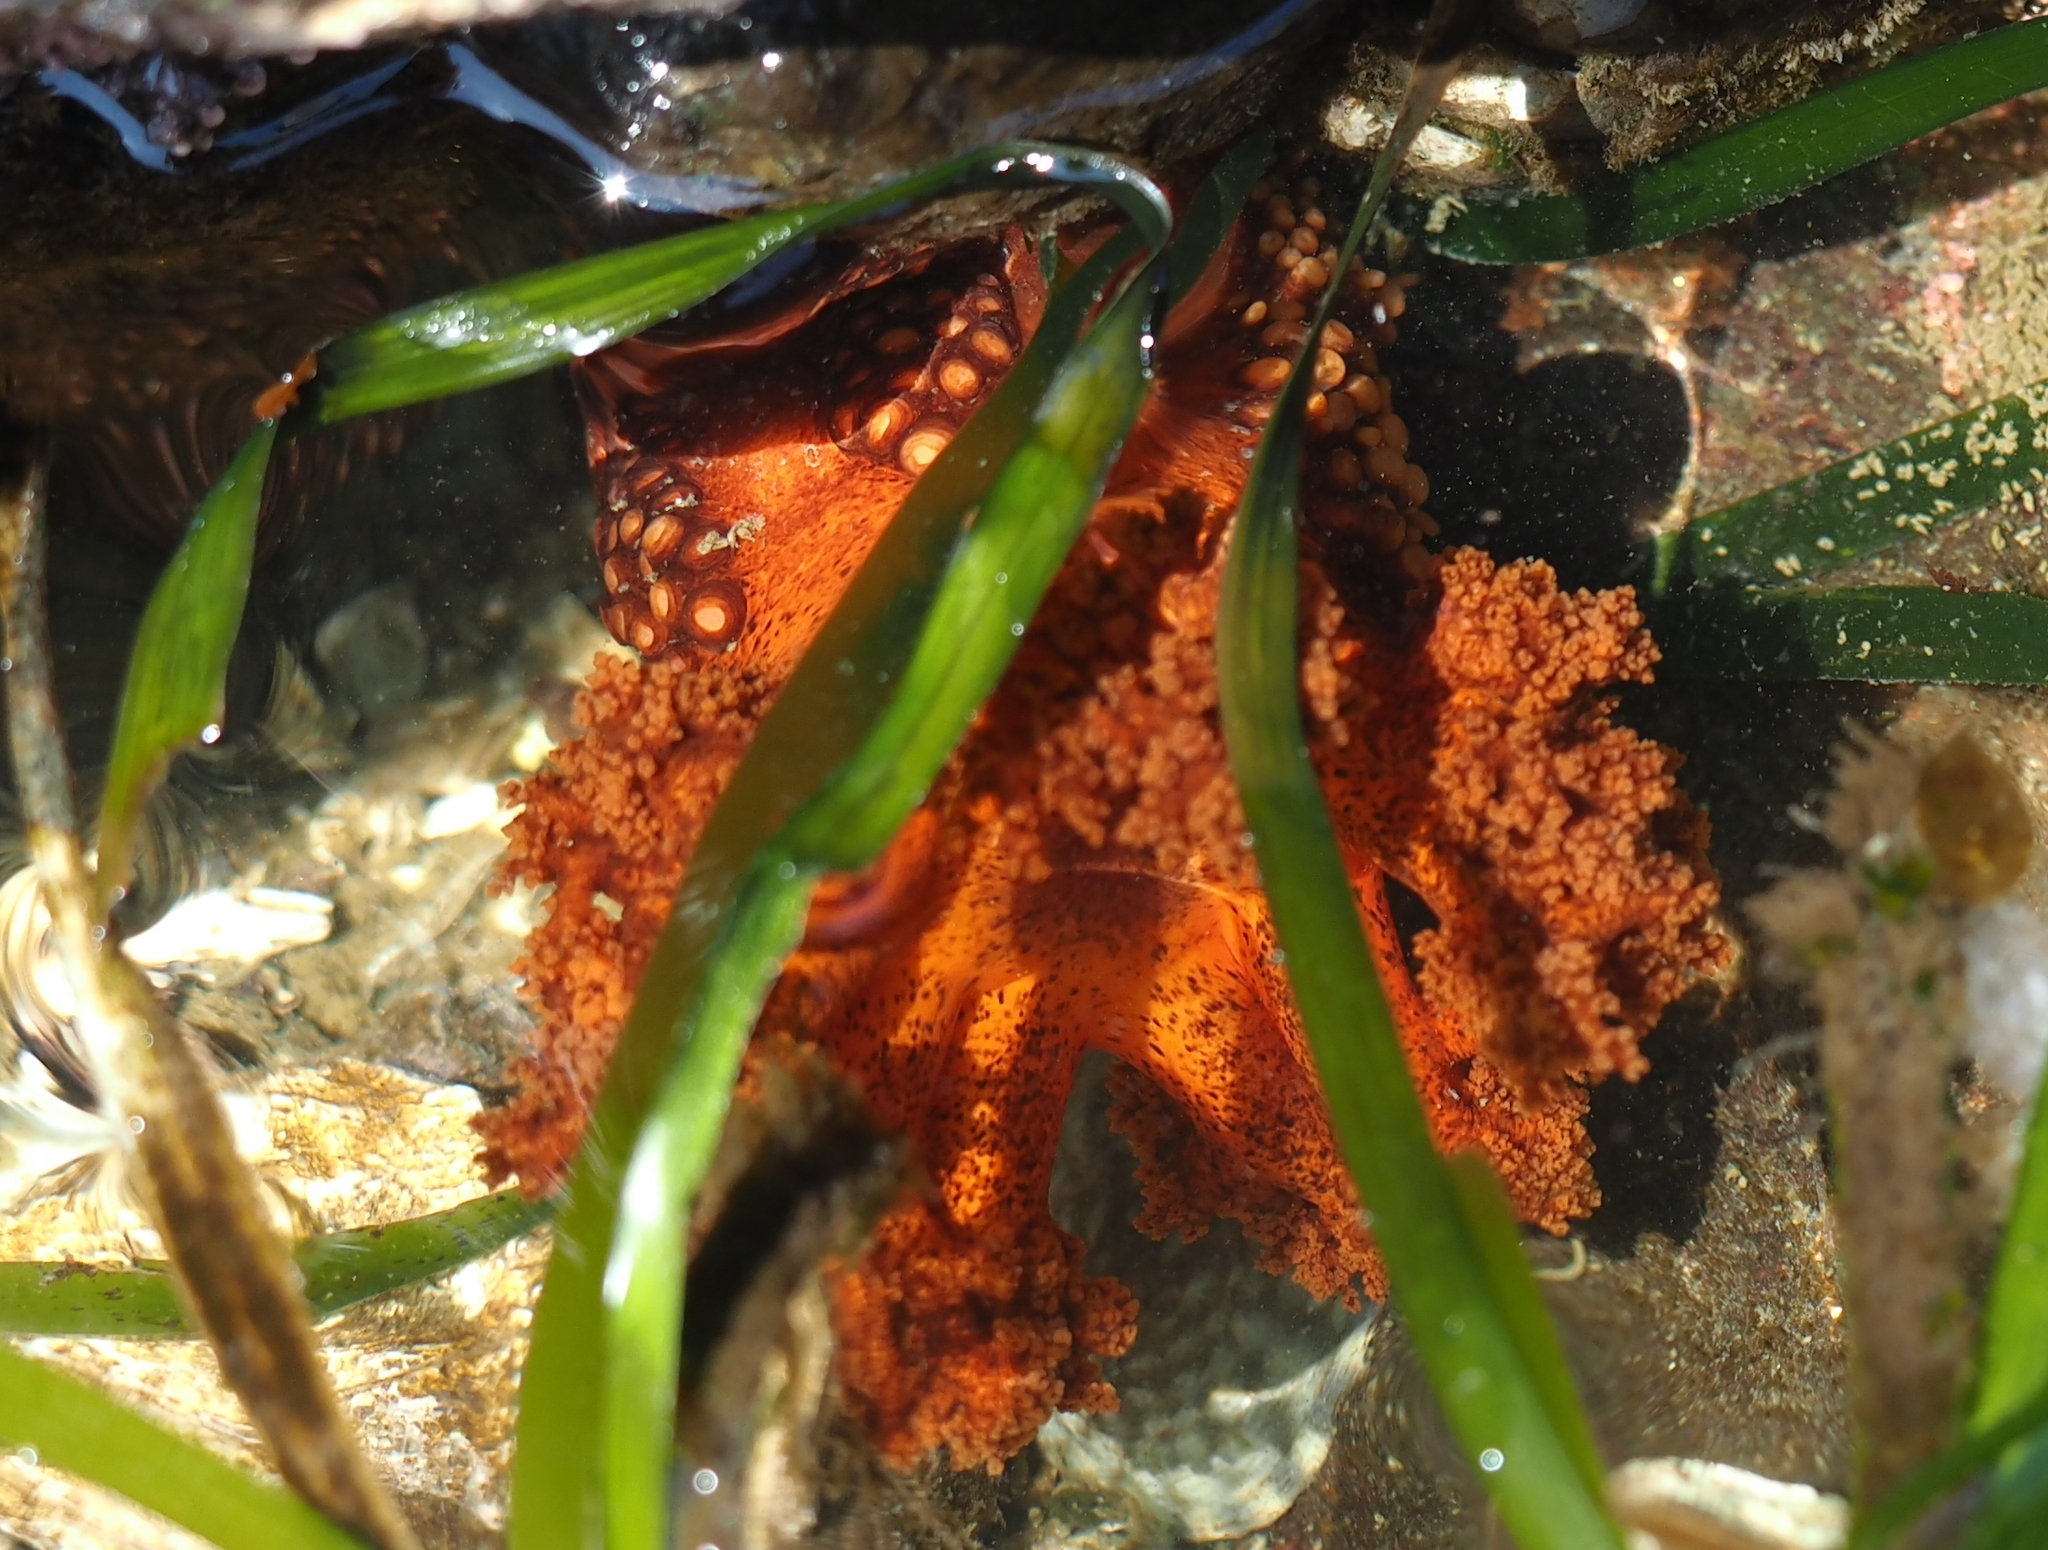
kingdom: Animalia
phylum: Echinodermata
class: Holothuroidea
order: Dendrochirotida
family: Cucumariidae
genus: Cucumaria
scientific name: Cucumaria miniata
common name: Orange sea cucumber
